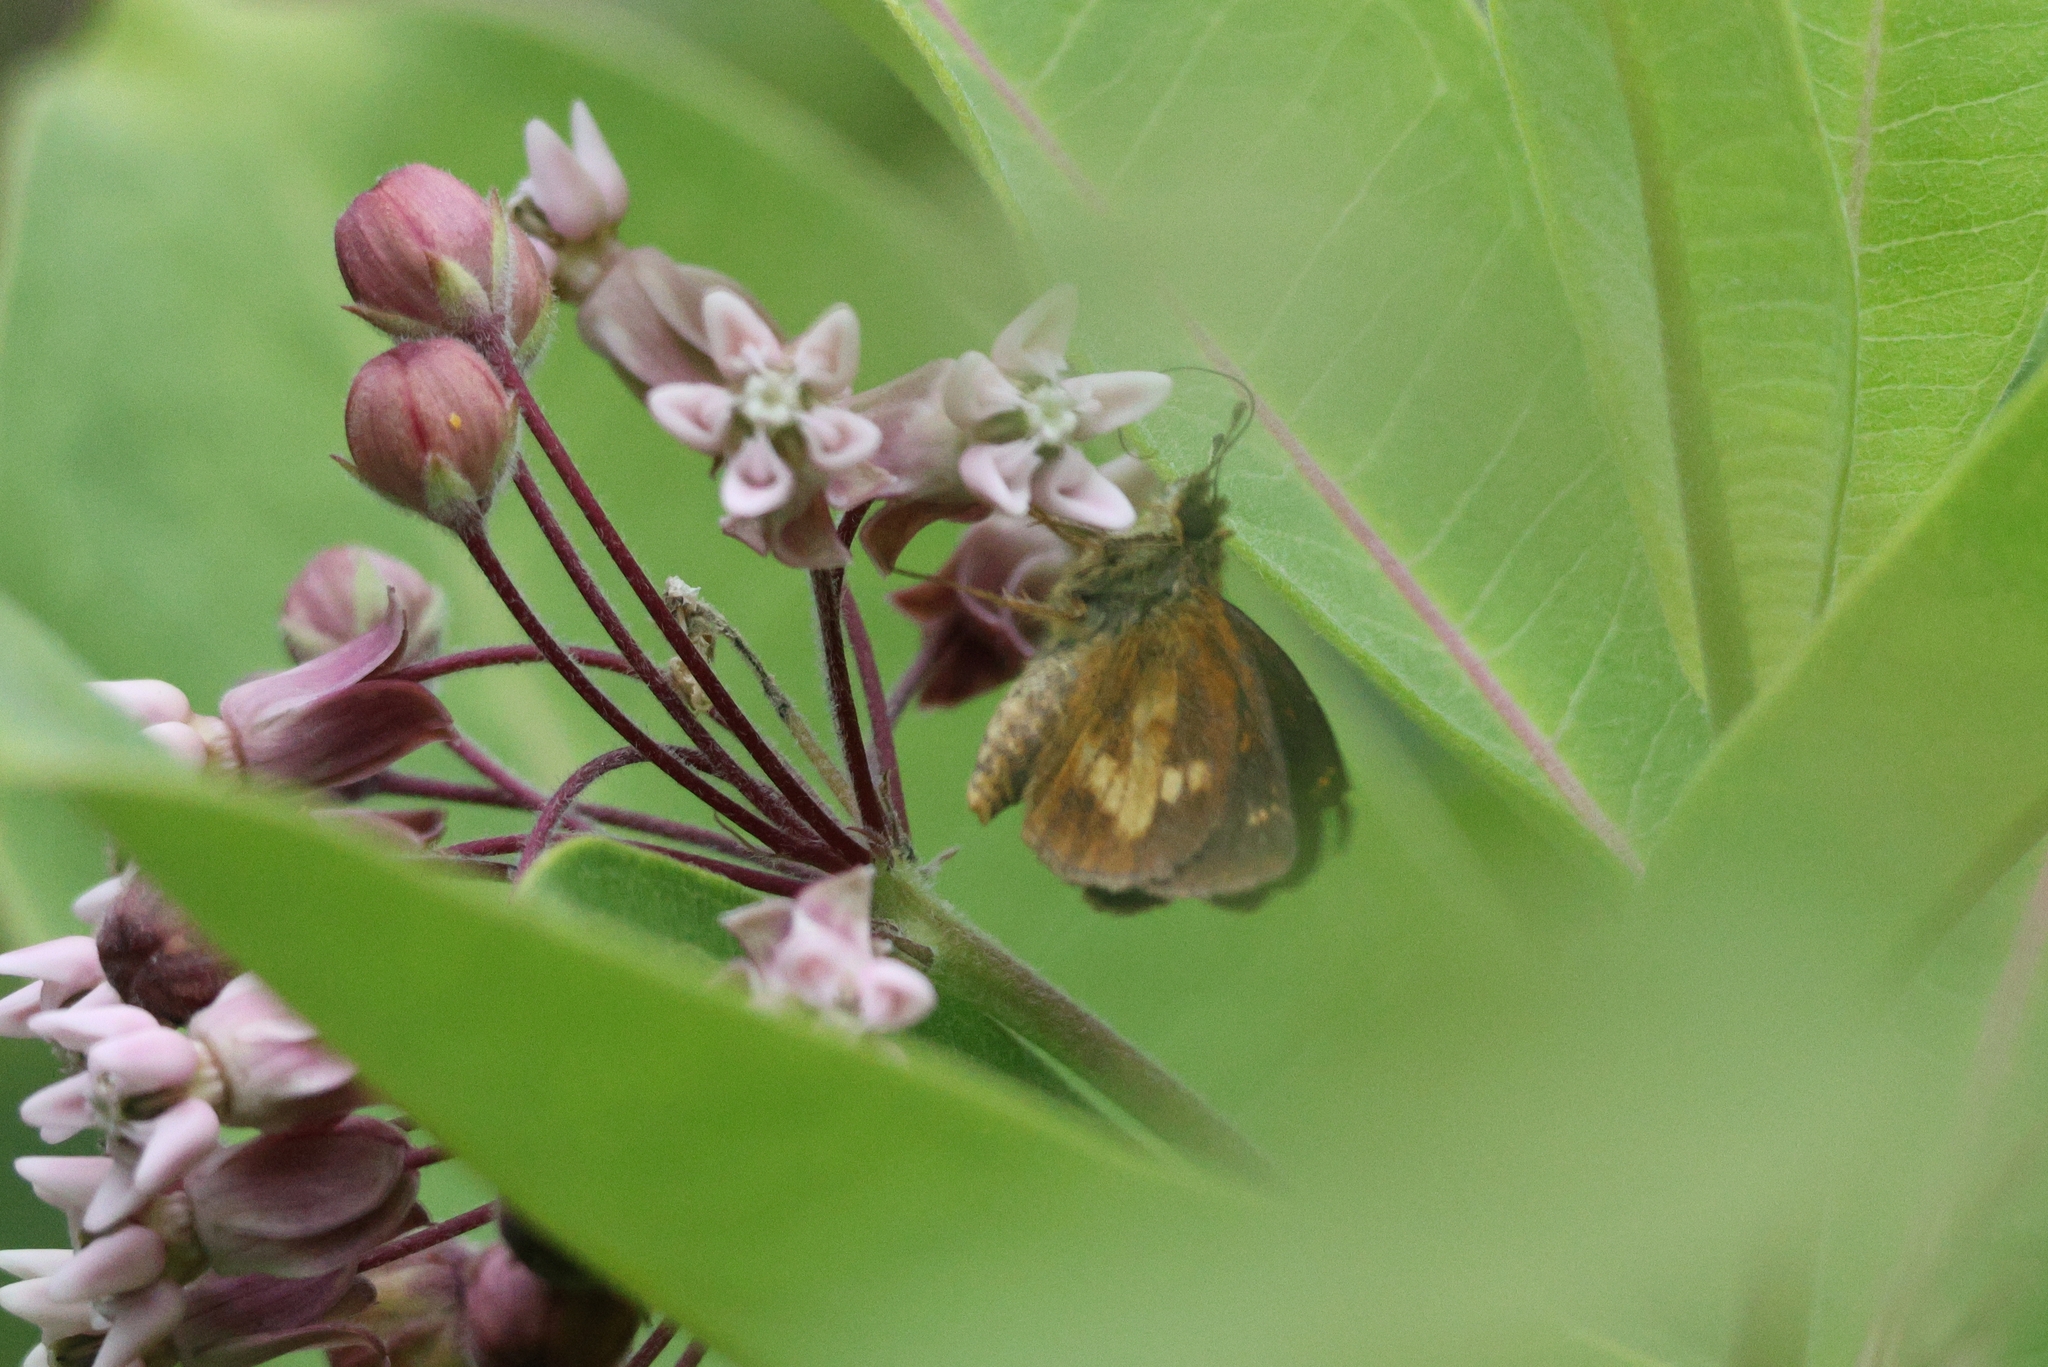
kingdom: Animalia
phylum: Arthropoda
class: Insecta
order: Lepidoptera
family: Hesperiidae
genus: Poanes
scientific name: Poanes massasoit
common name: Mulberrywing
